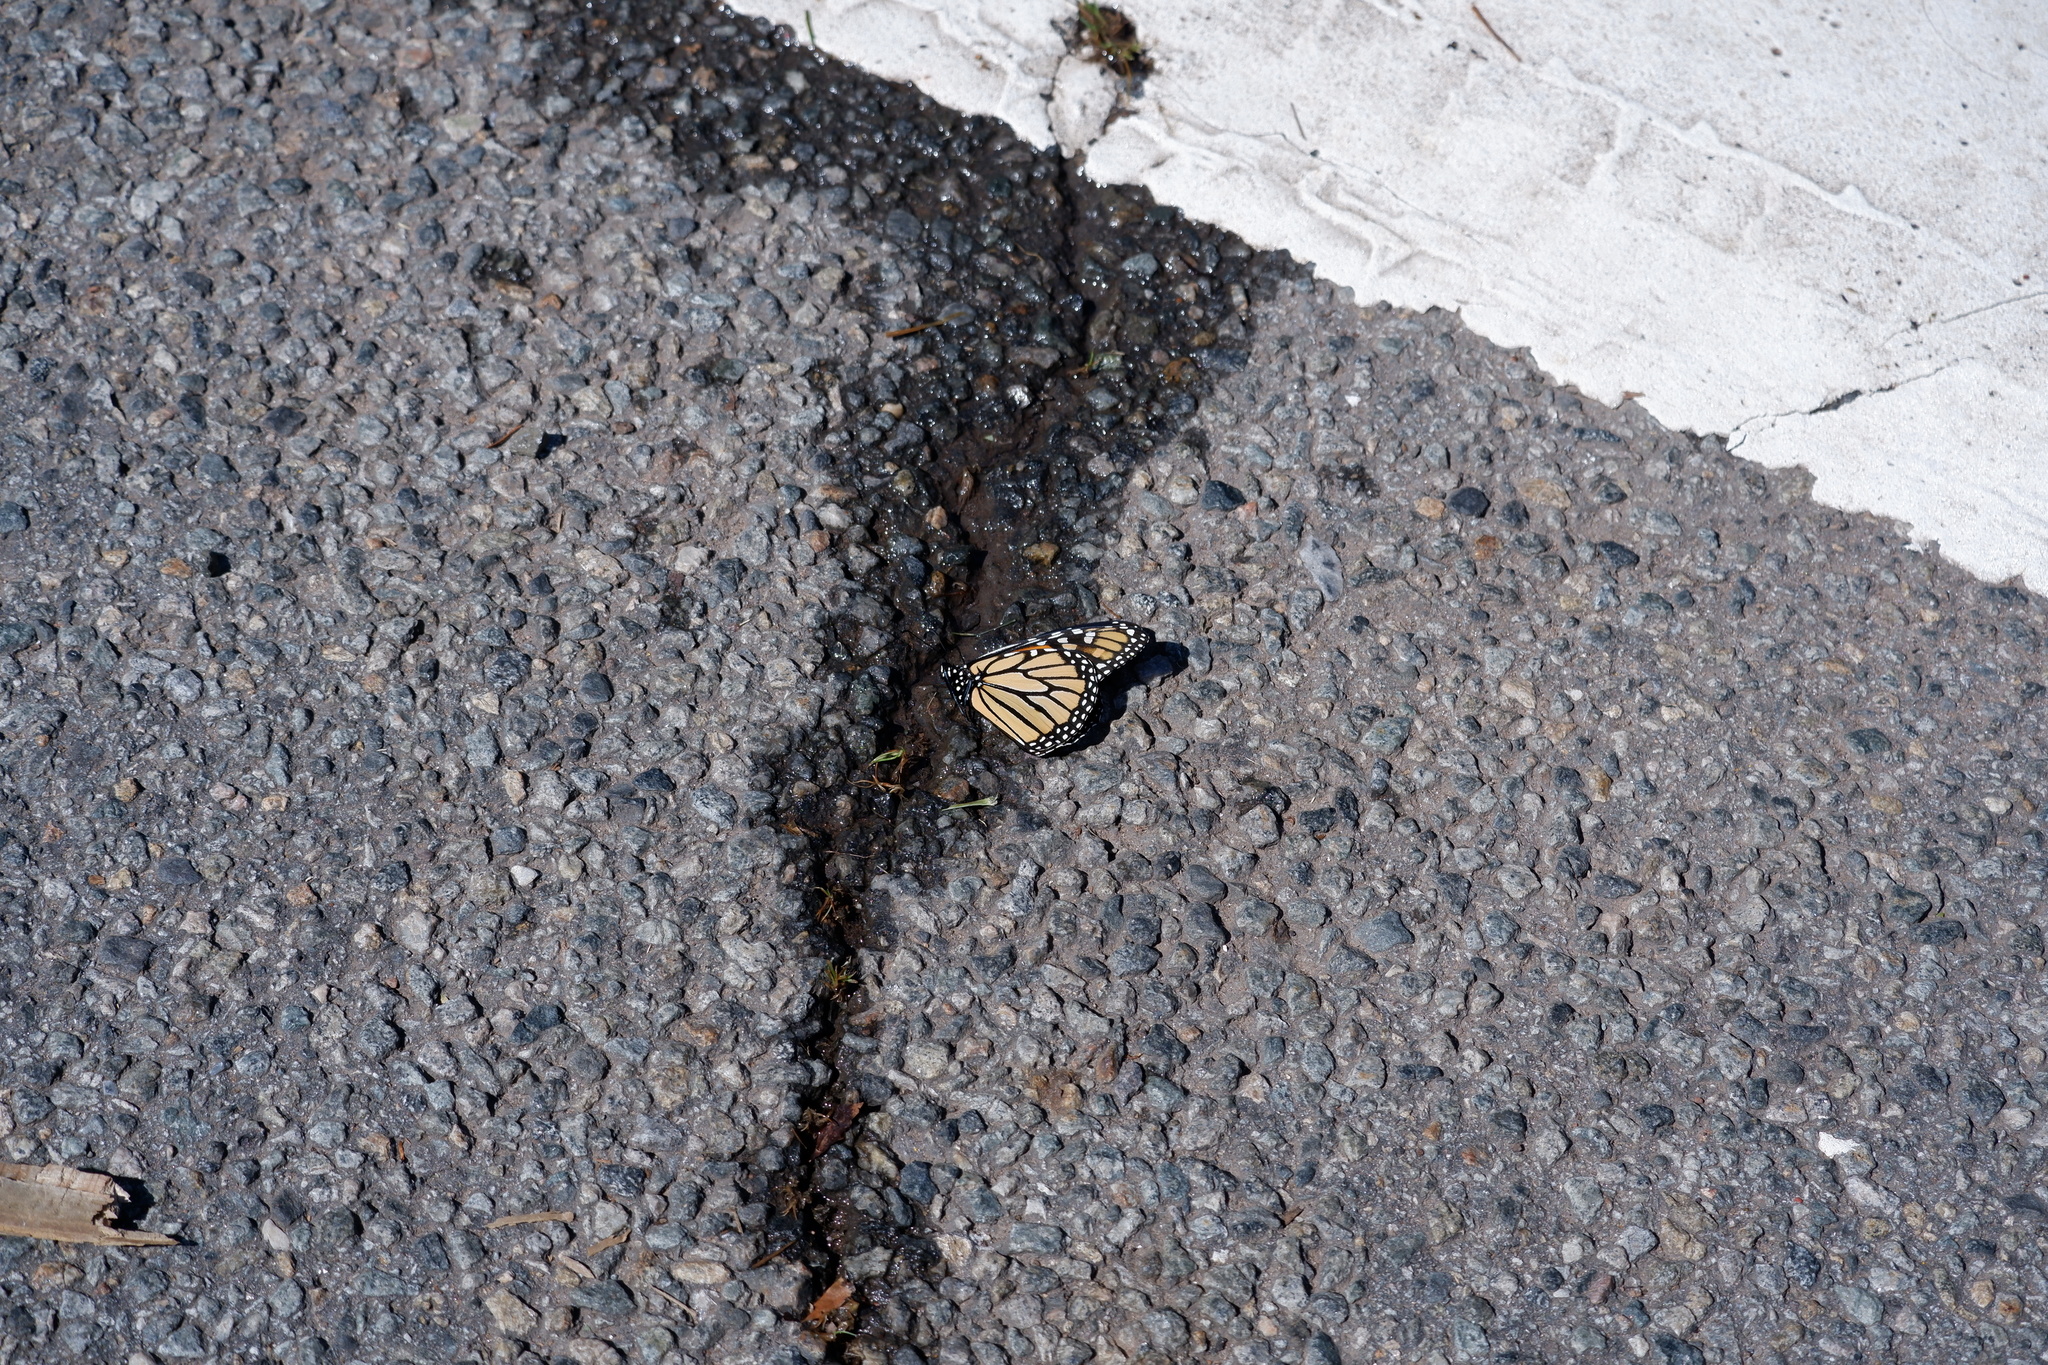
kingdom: Animalia
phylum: Arthropoda
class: Insecta
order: Lepidoptera
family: Nymphalidae
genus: Danaus
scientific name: Danaus plexippus
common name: Monarch
